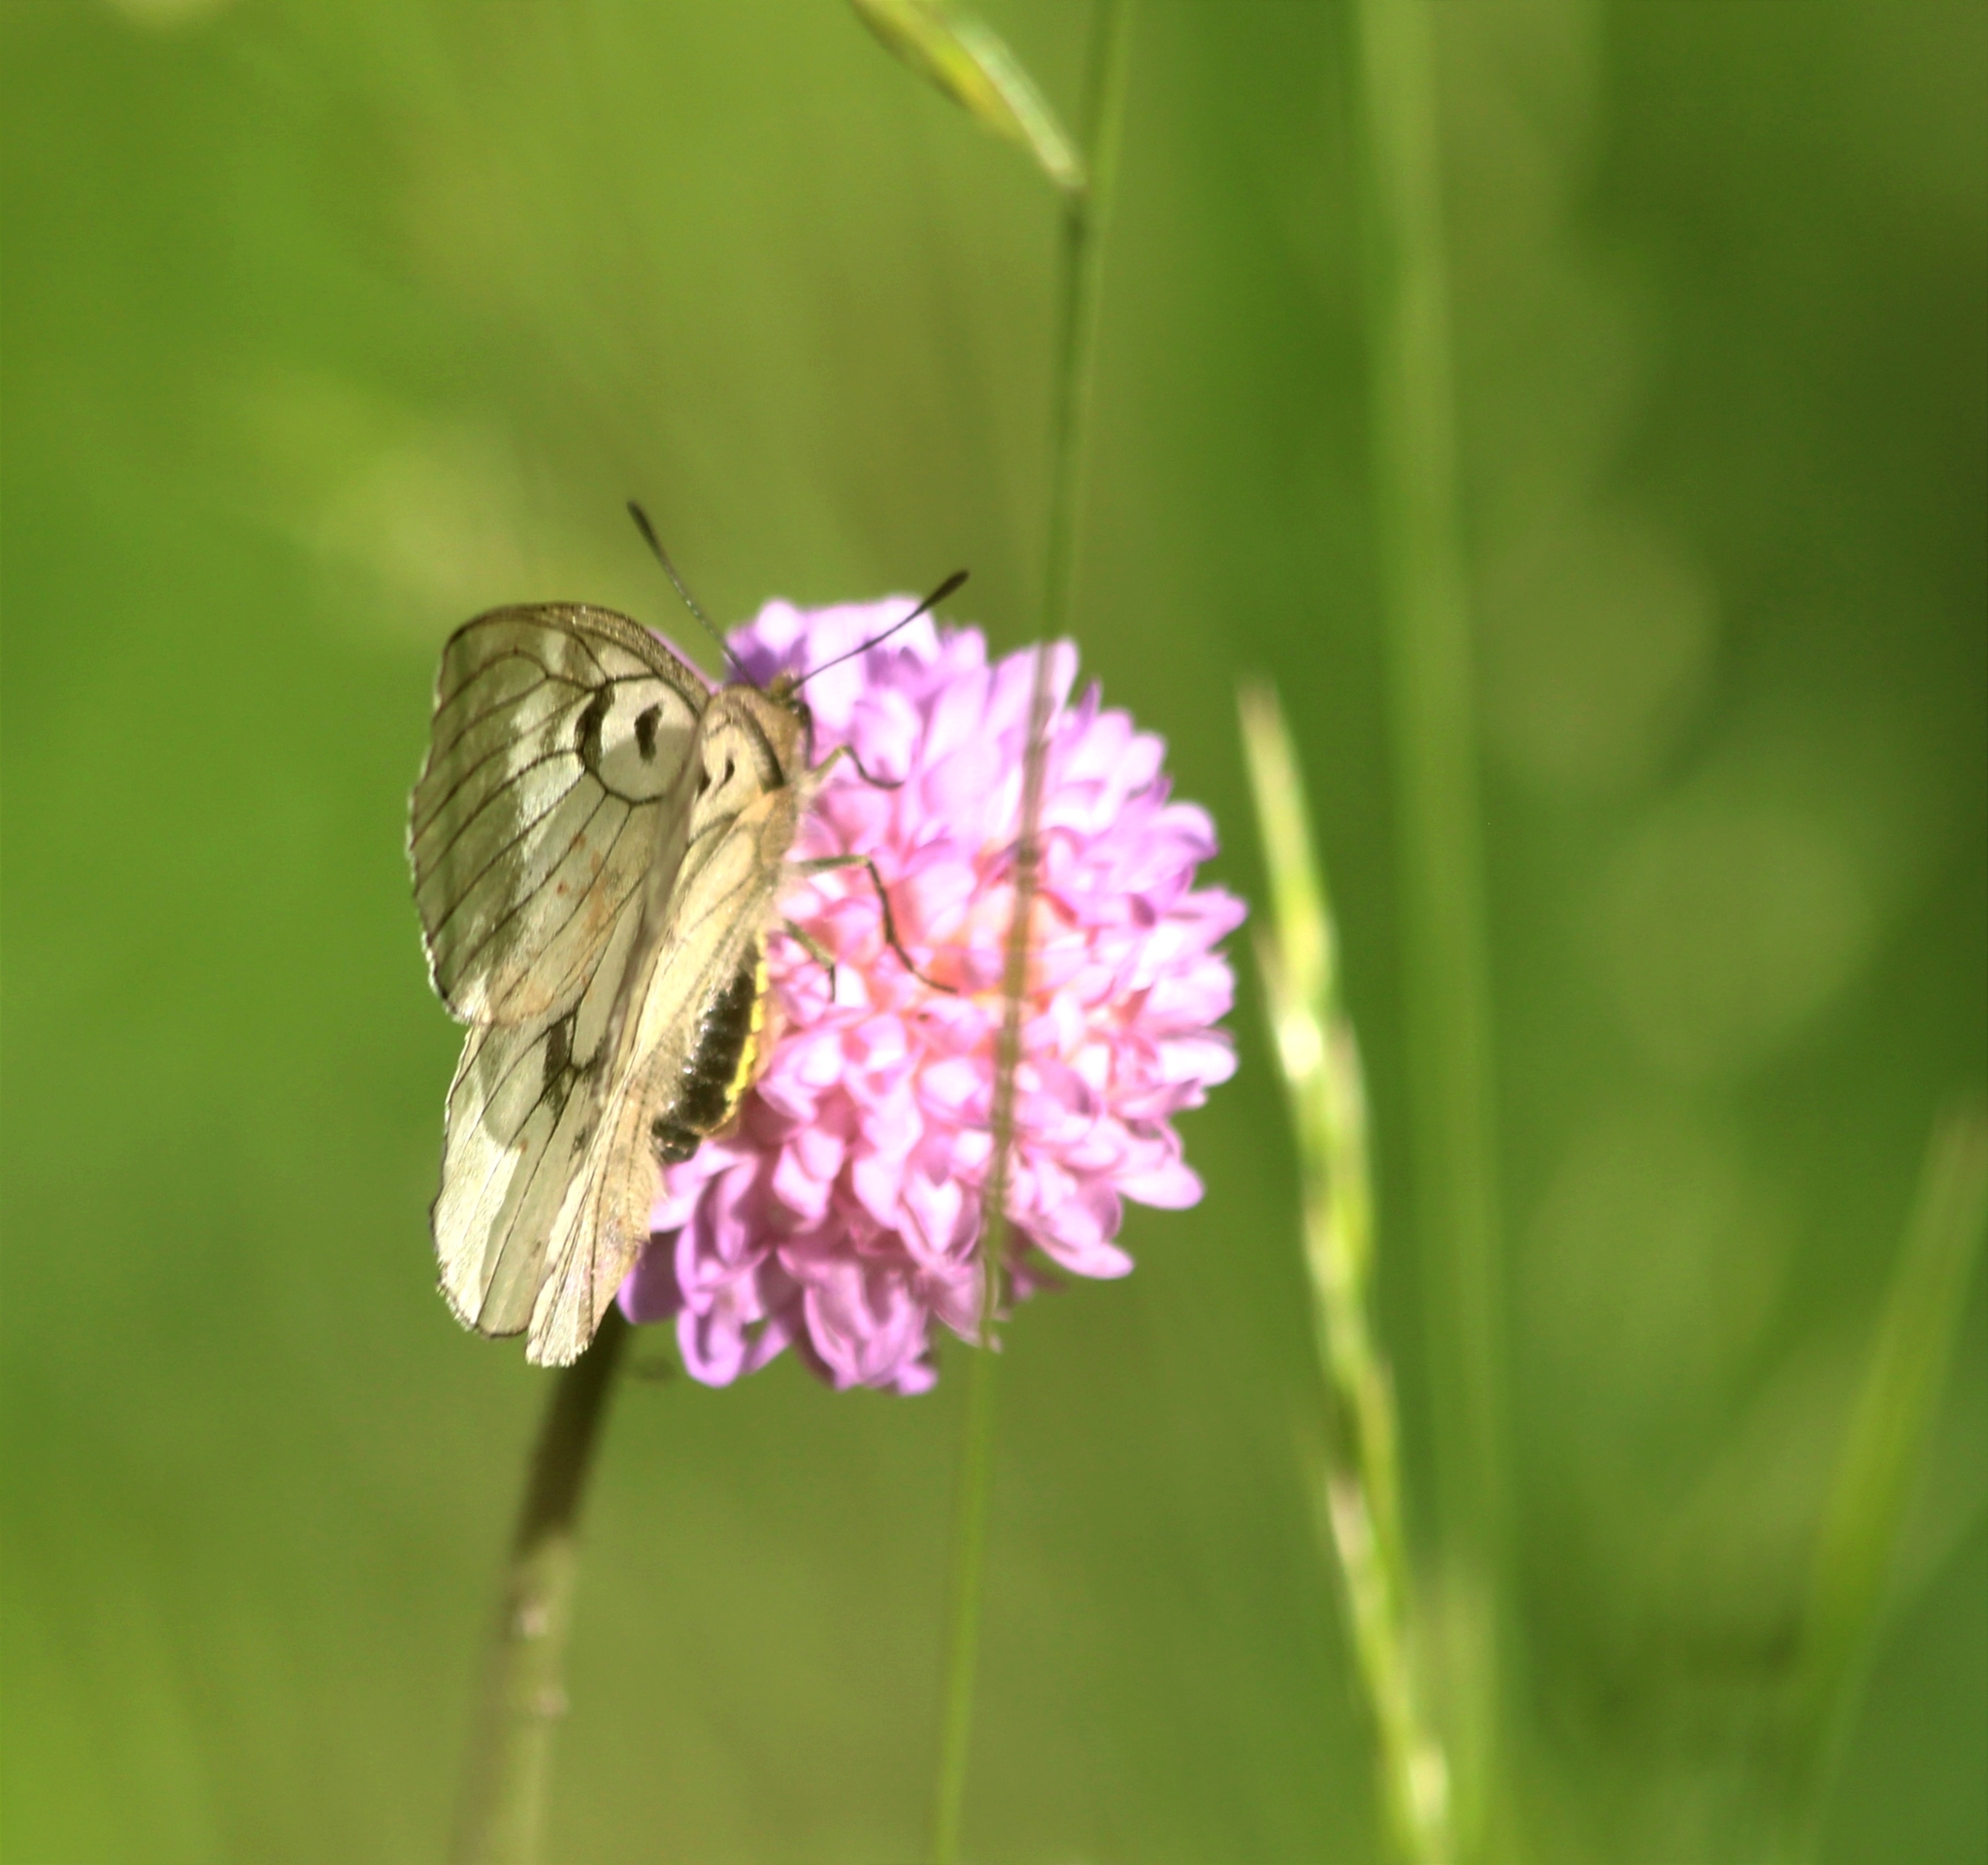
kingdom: Animalia
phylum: Arthropoda
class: Insecta
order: Lepidoptera
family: Papilionidae
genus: Parnassius
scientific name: Parnassius mnemosyne
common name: Clouded apollo
